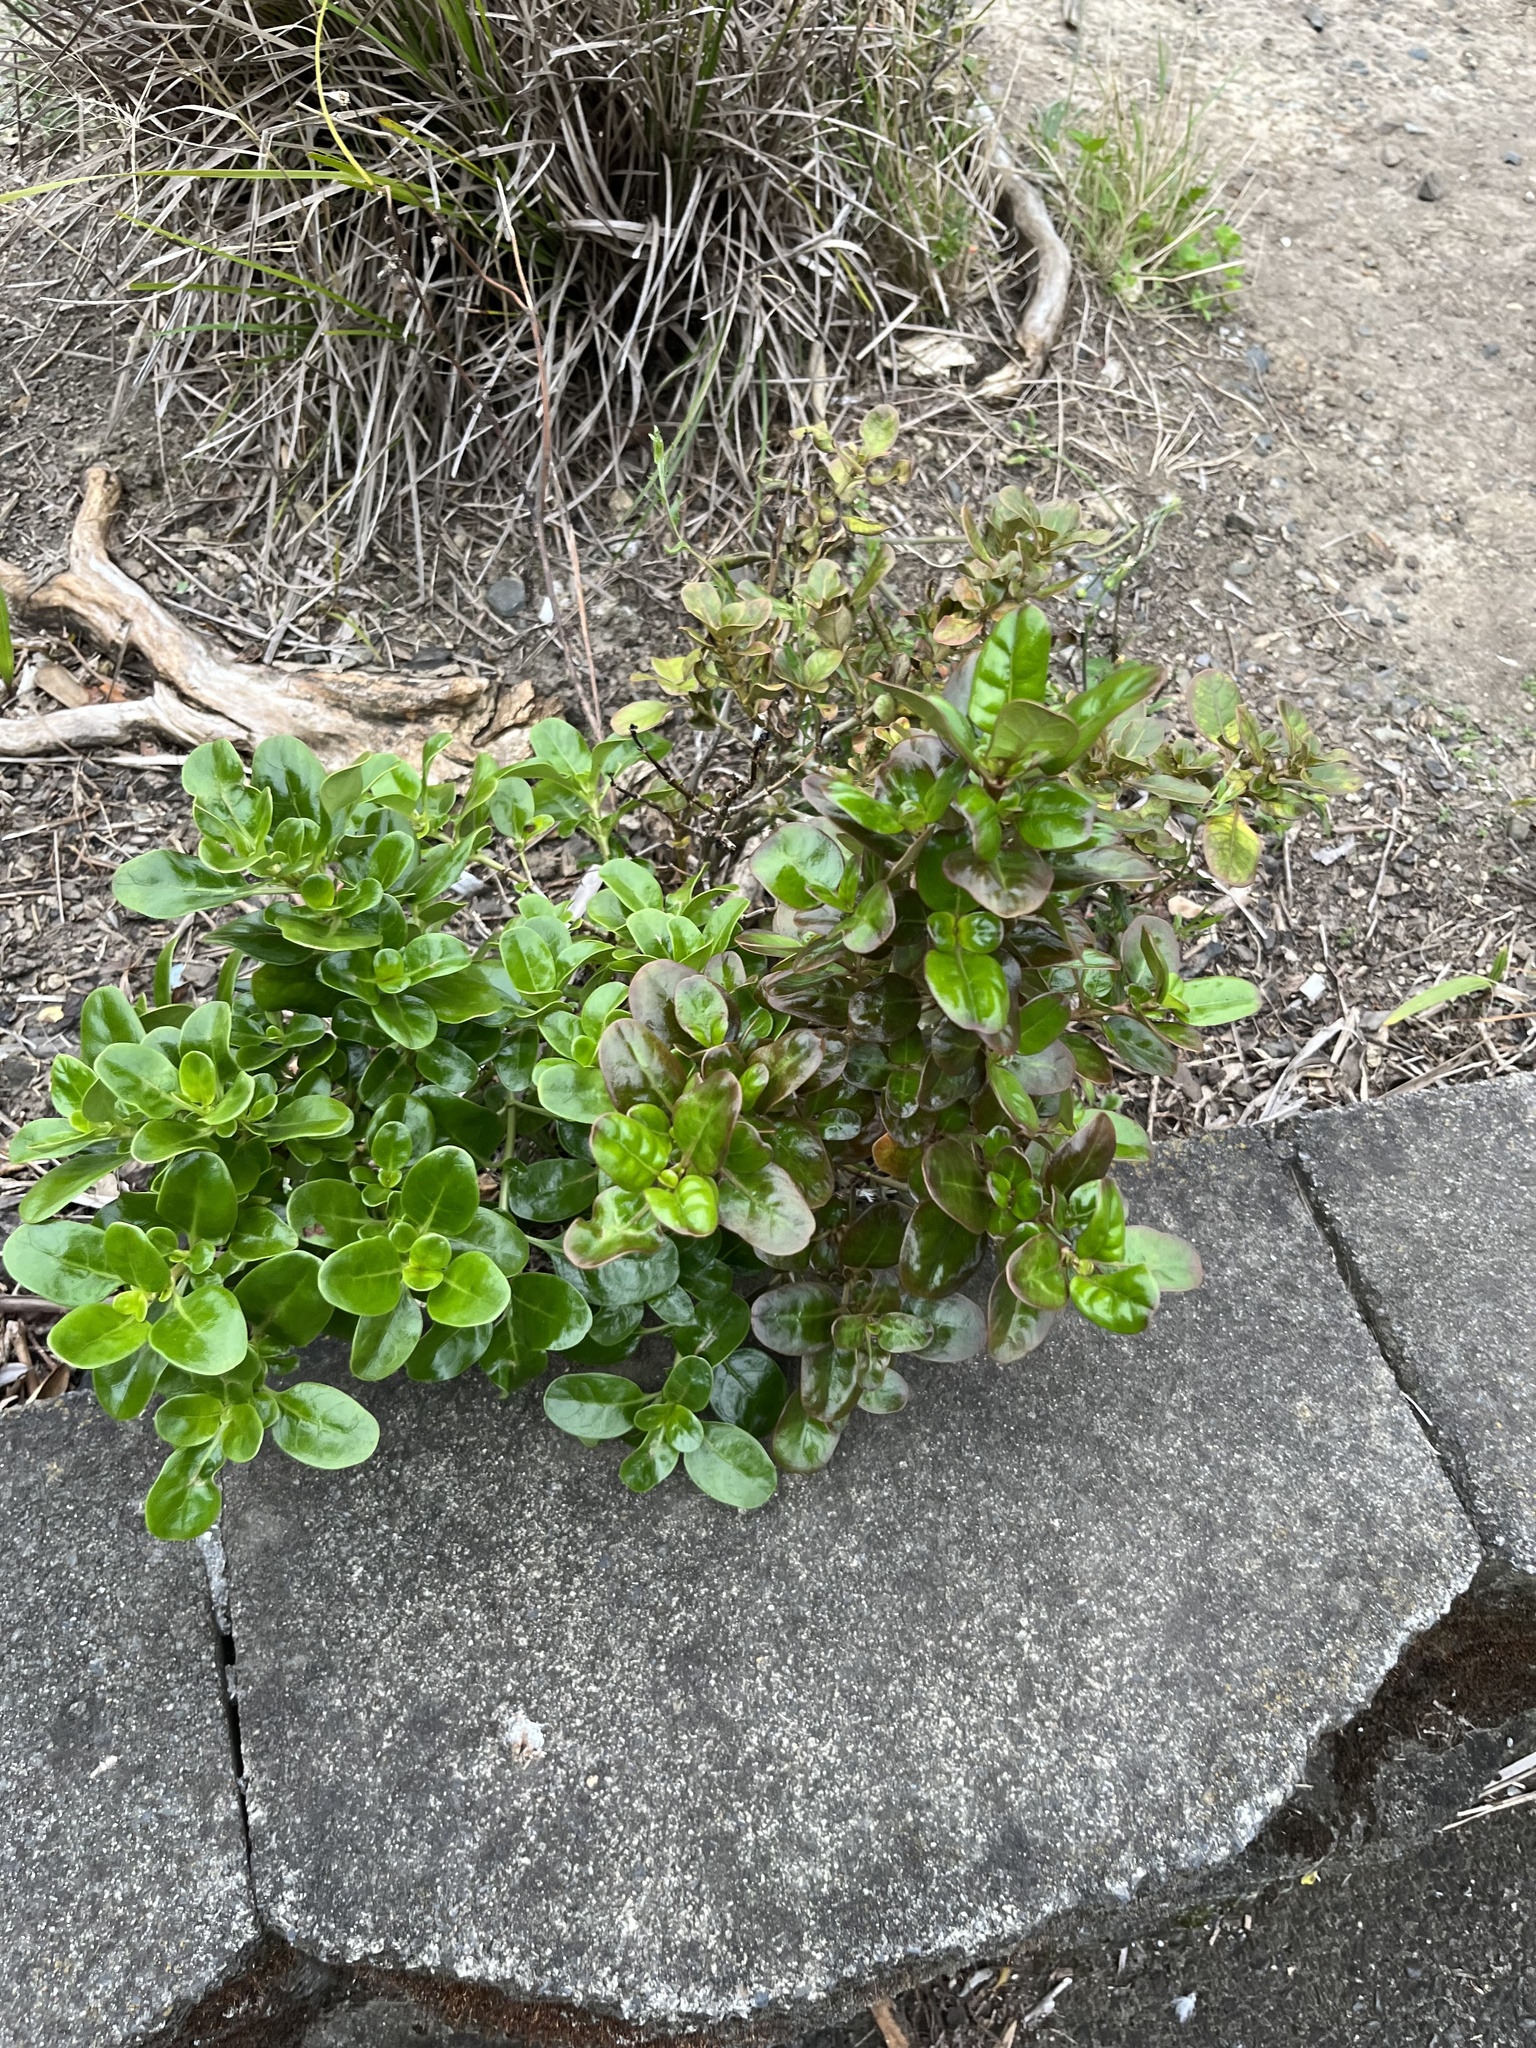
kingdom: Plantae
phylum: Tracheophyta
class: Magnoliopsida
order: Gentianales
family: Rubiaceae
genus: Coprosma
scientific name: Coprosma repens
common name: Tree bedstraw
